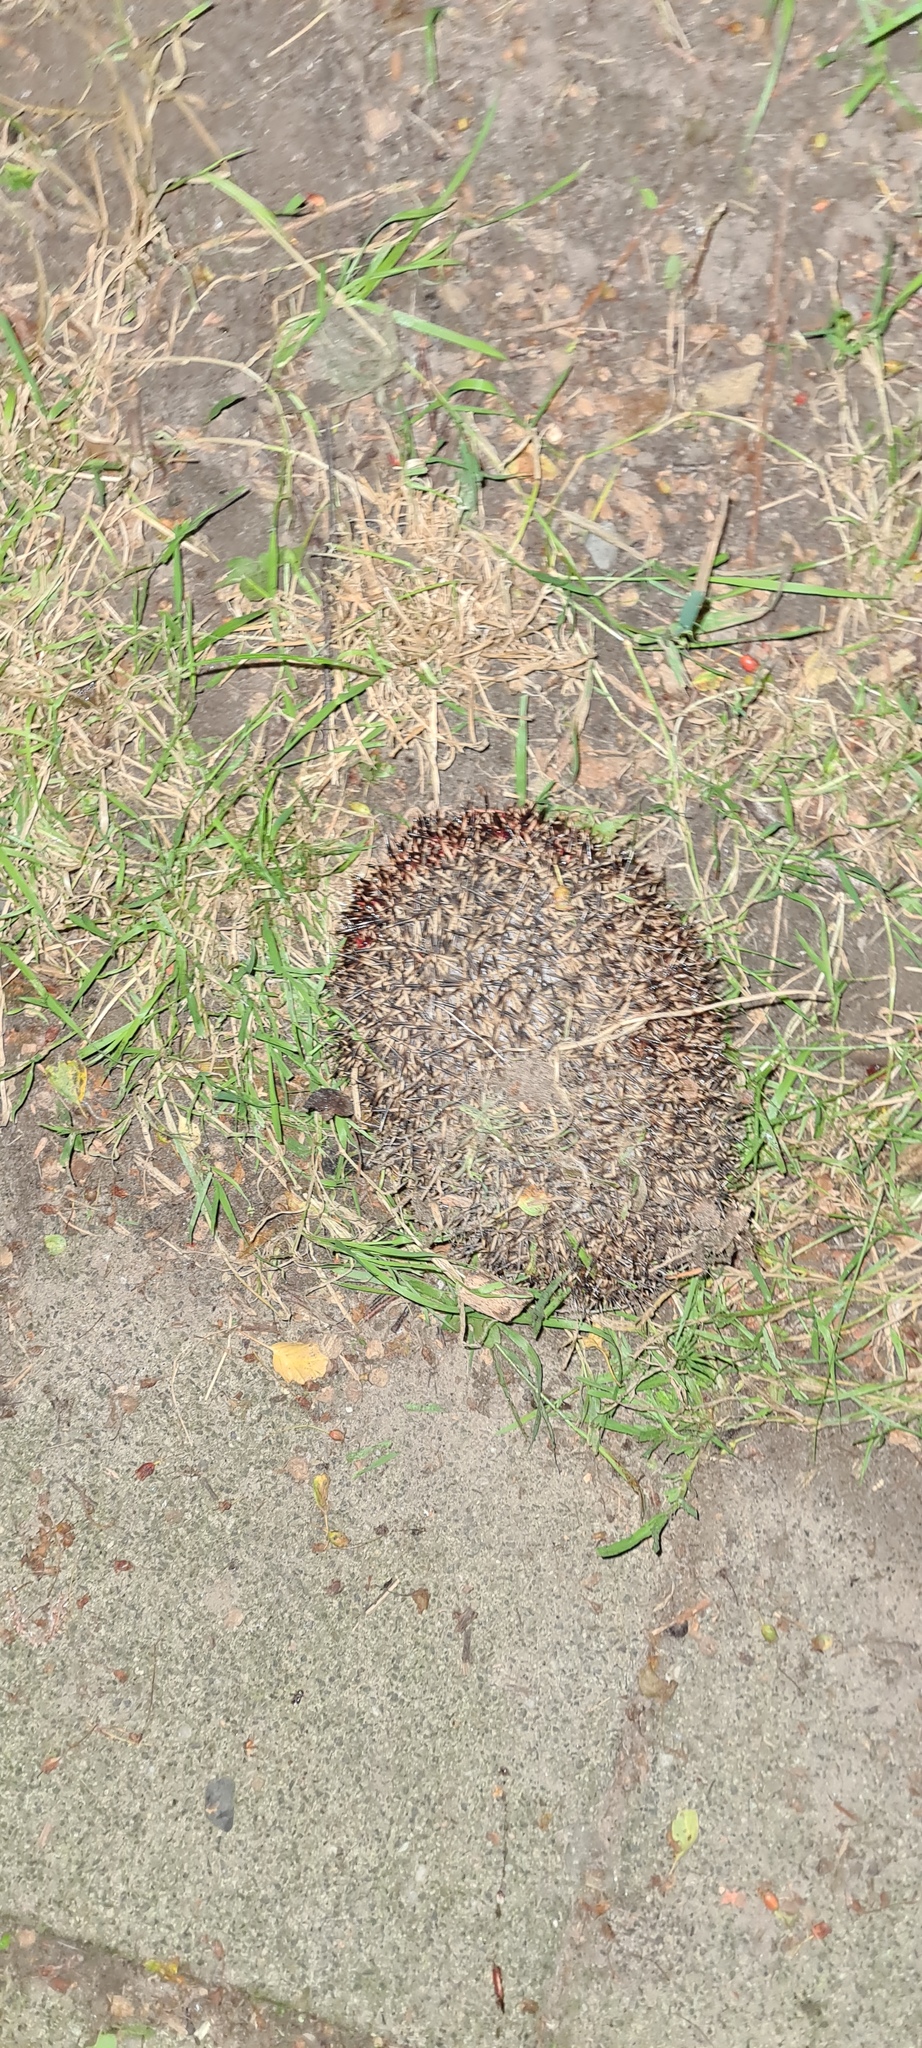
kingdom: Animalia
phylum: Chordata
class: Mammalia
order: Erinaceomorpha
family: Erinaceidae
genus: Erinaceus
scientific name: Erinaceus europaeus
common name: West european hedgehog
